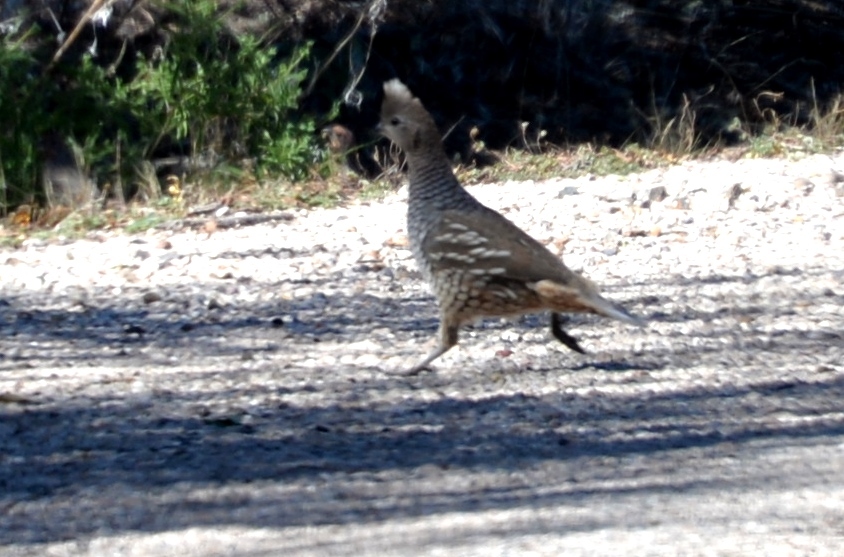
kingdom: Animalia
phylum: Chordata
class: Aves
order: Galliformes
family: Odontophoridae
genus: Callipepla
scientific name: Callipepla squamata
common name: Scaled quail
